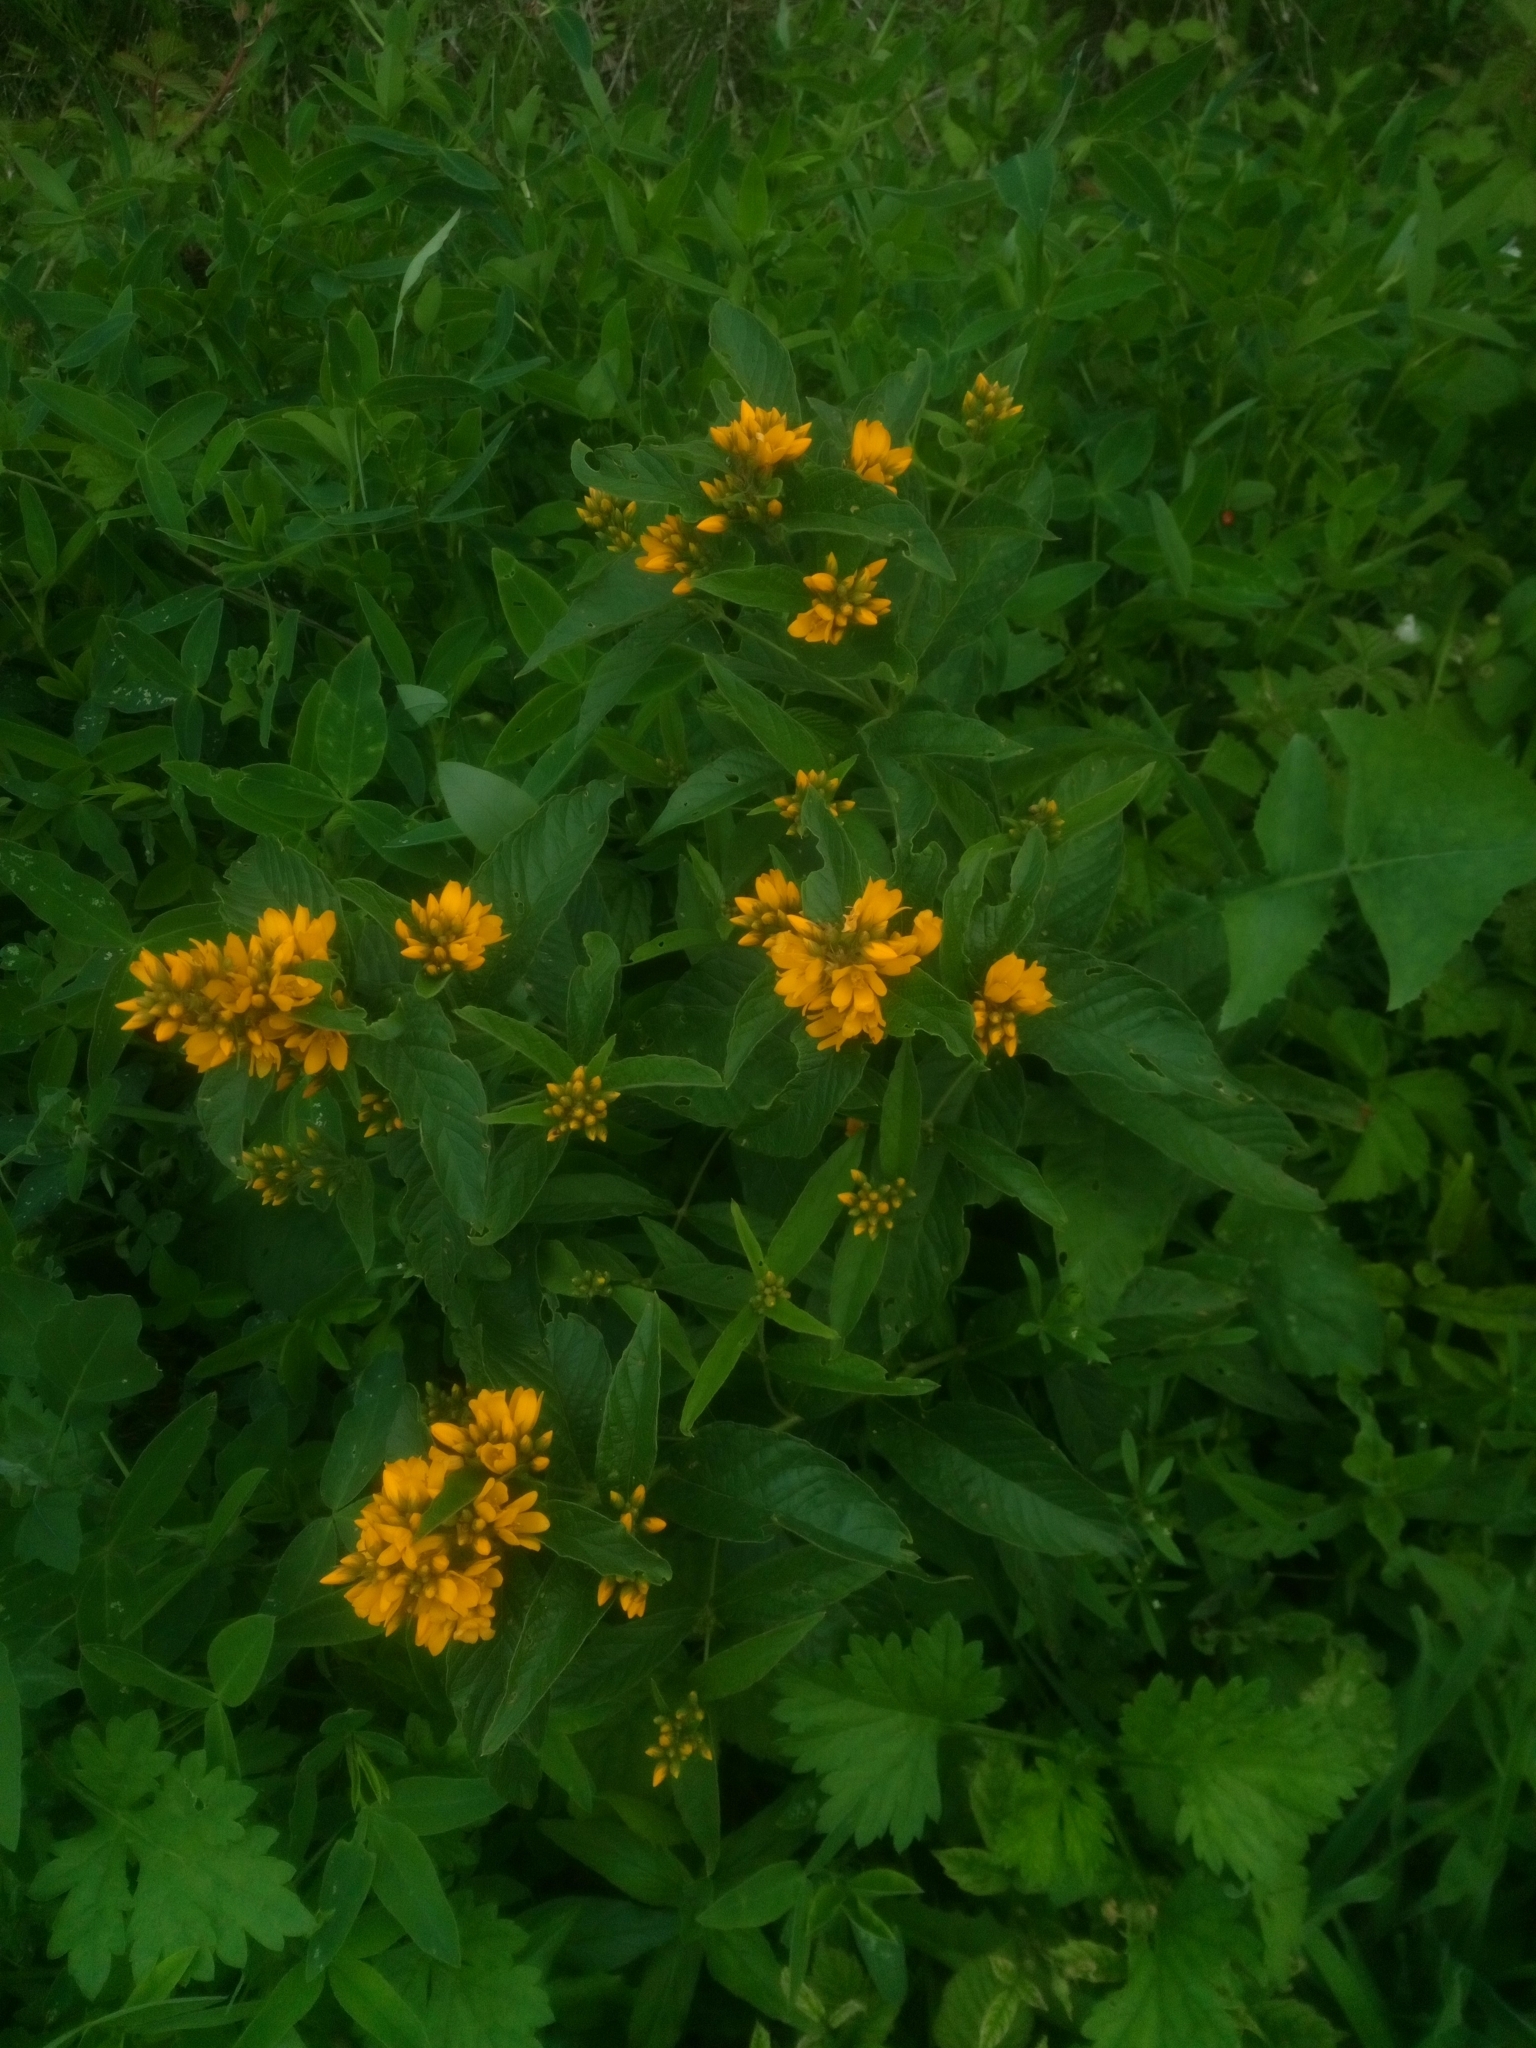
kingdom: Plantae
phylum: Tracheophyta
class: Magnoliopsida
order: Ericales
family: Primulaceae
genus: Lysimachia
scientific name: Lysimachia vulgaris
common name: Yellow loosestrife
